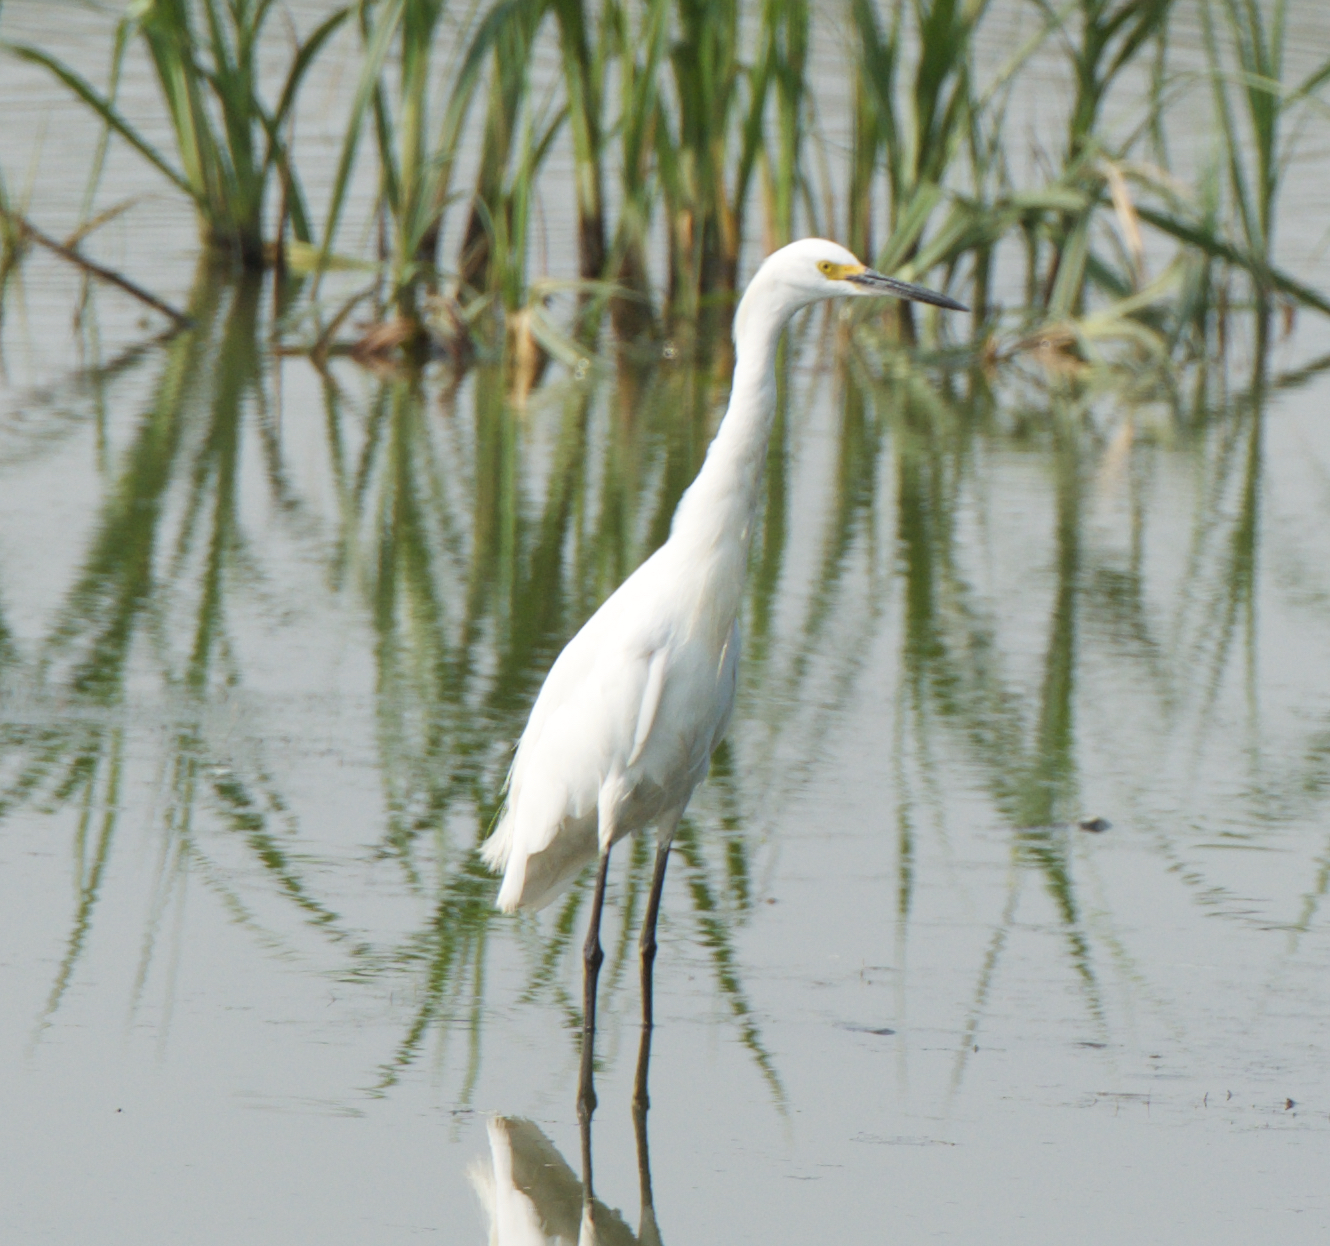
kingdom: Animalia
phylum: Chordata
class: Aves
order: Pelecaniformes
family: Ardeidae
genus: Egretta
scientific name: Egretta thula
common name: Snowy egret
